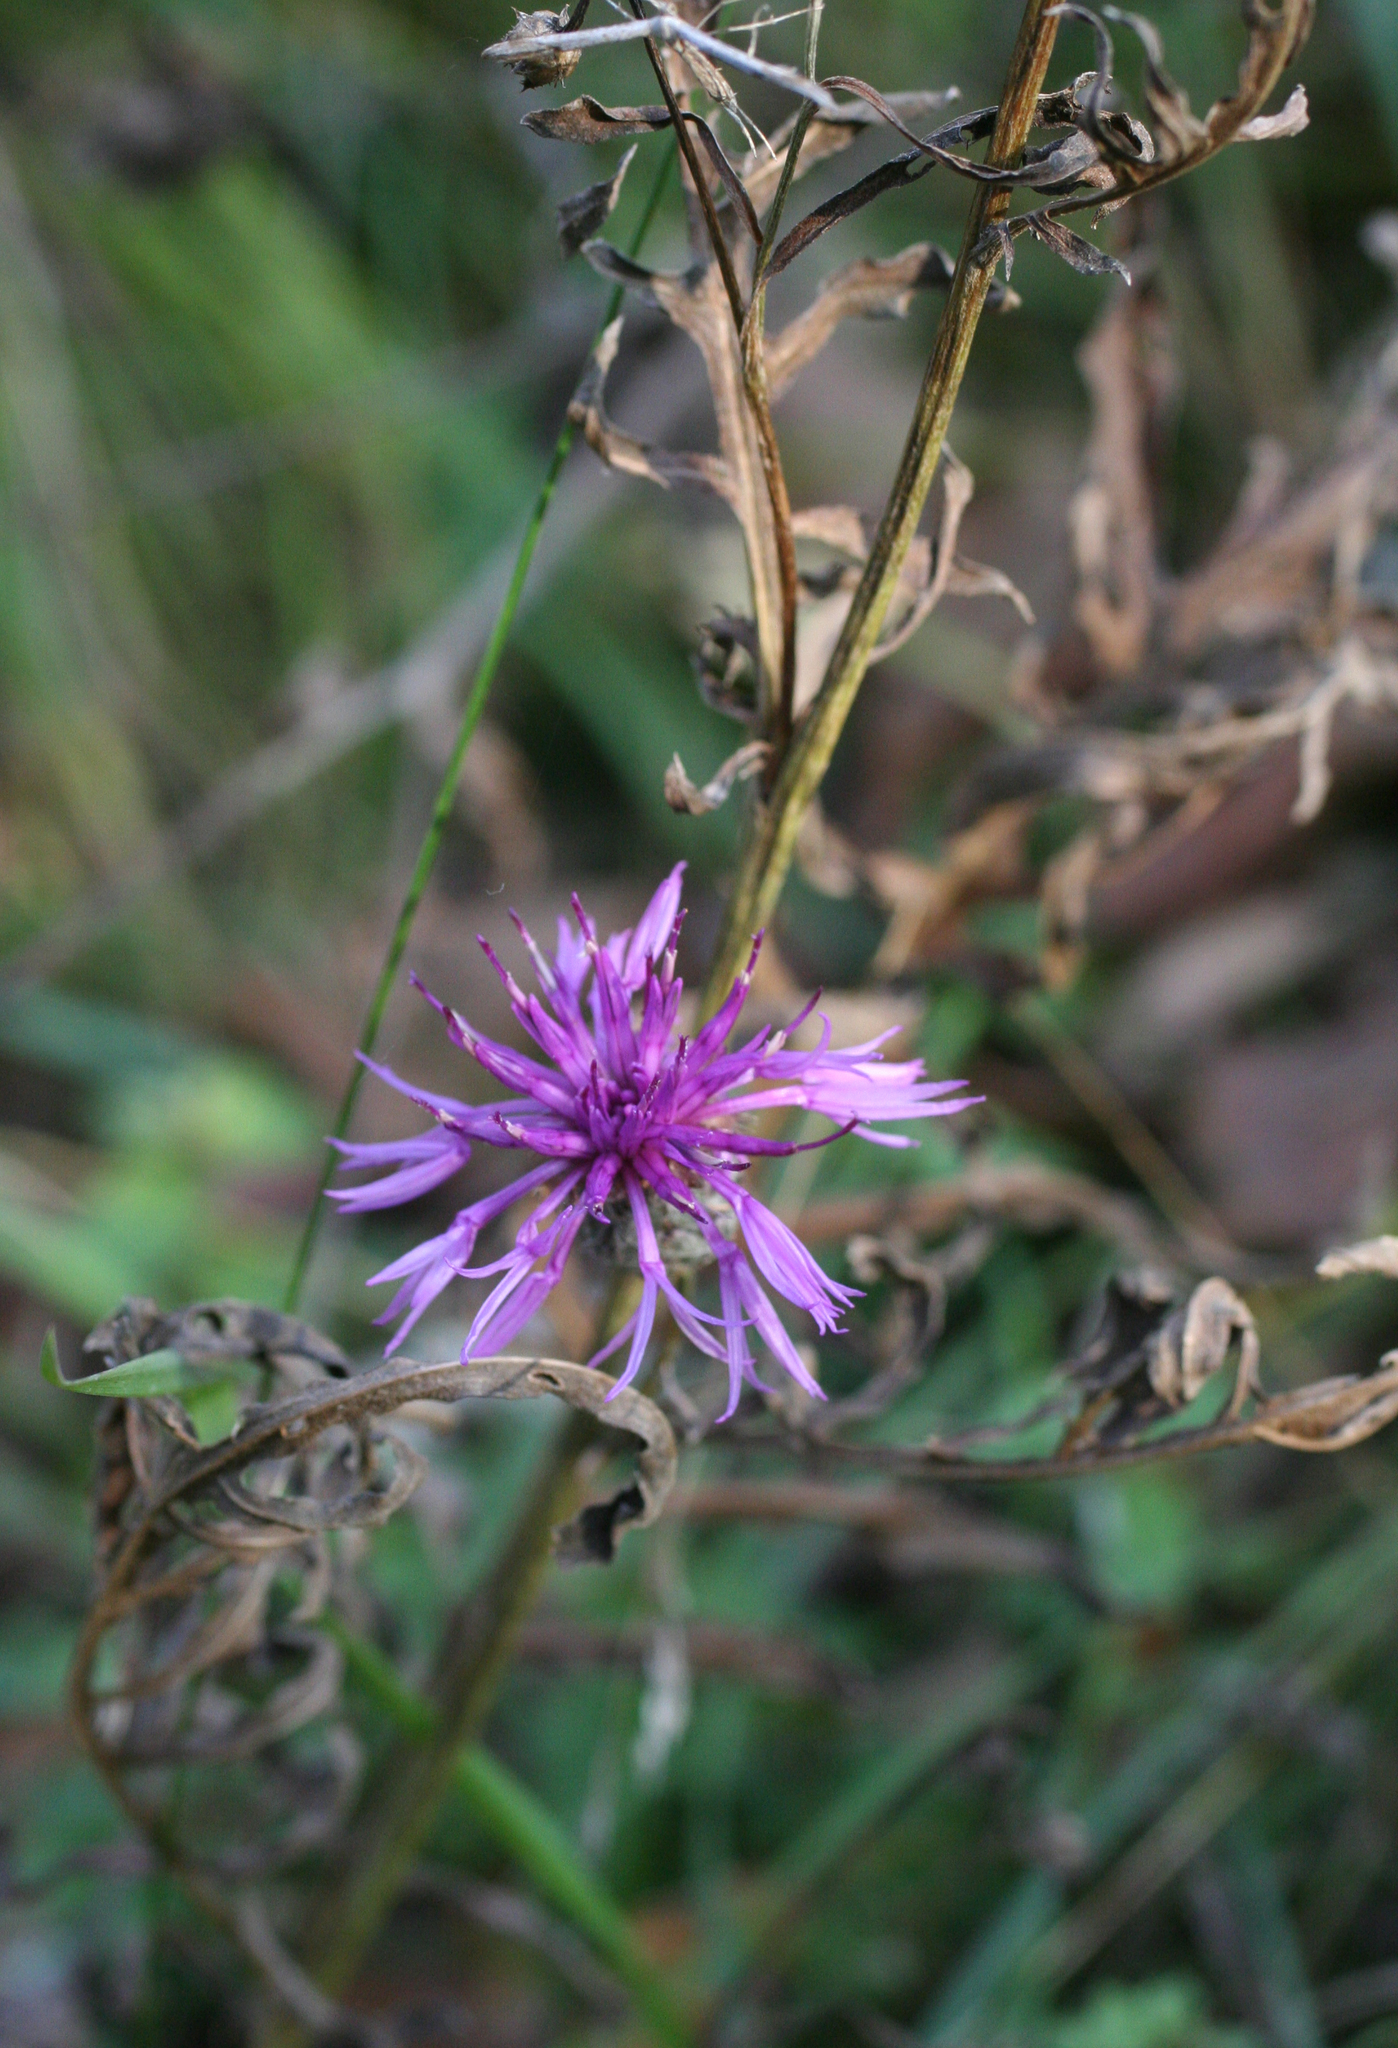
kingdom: Plantae
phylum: Tracheophyta
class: Magnoliopsida
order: Asterales
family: Asteraceae
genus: Centaurea
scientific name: Centaurea scabiosa
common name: Greater knapweed
